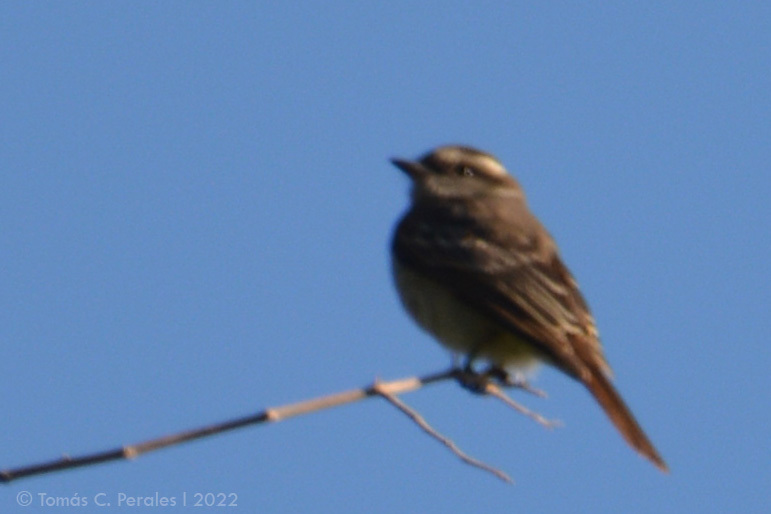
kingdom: Animalia
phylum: Chordata
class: Aves
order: Passeriformes
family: Tyrannidae
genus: Empidonomus
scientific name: Empidonomus aurantioatrocristatus
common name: Crowned slaty flycatcher
